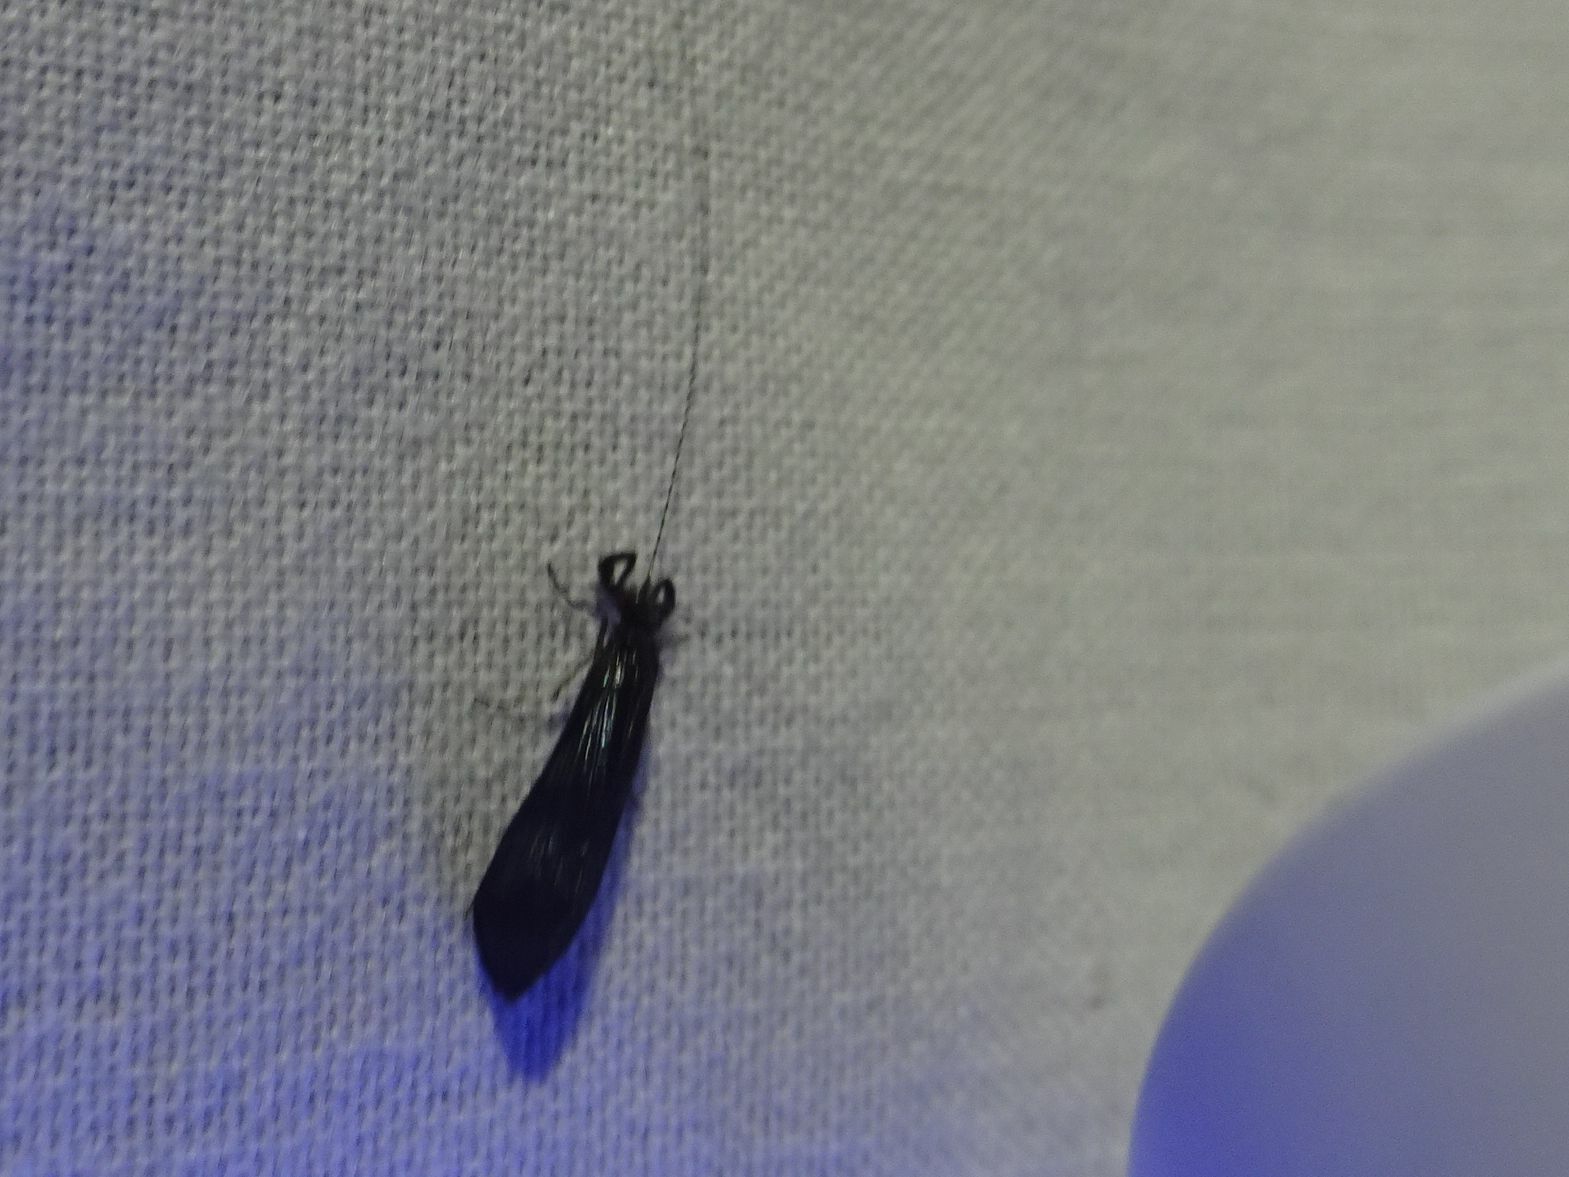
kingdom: Animalia
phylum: Arthropoda
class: Insecta
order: Trichoptera
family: Leptoceridae
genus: Mystacides
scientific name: Mystacides azureus
